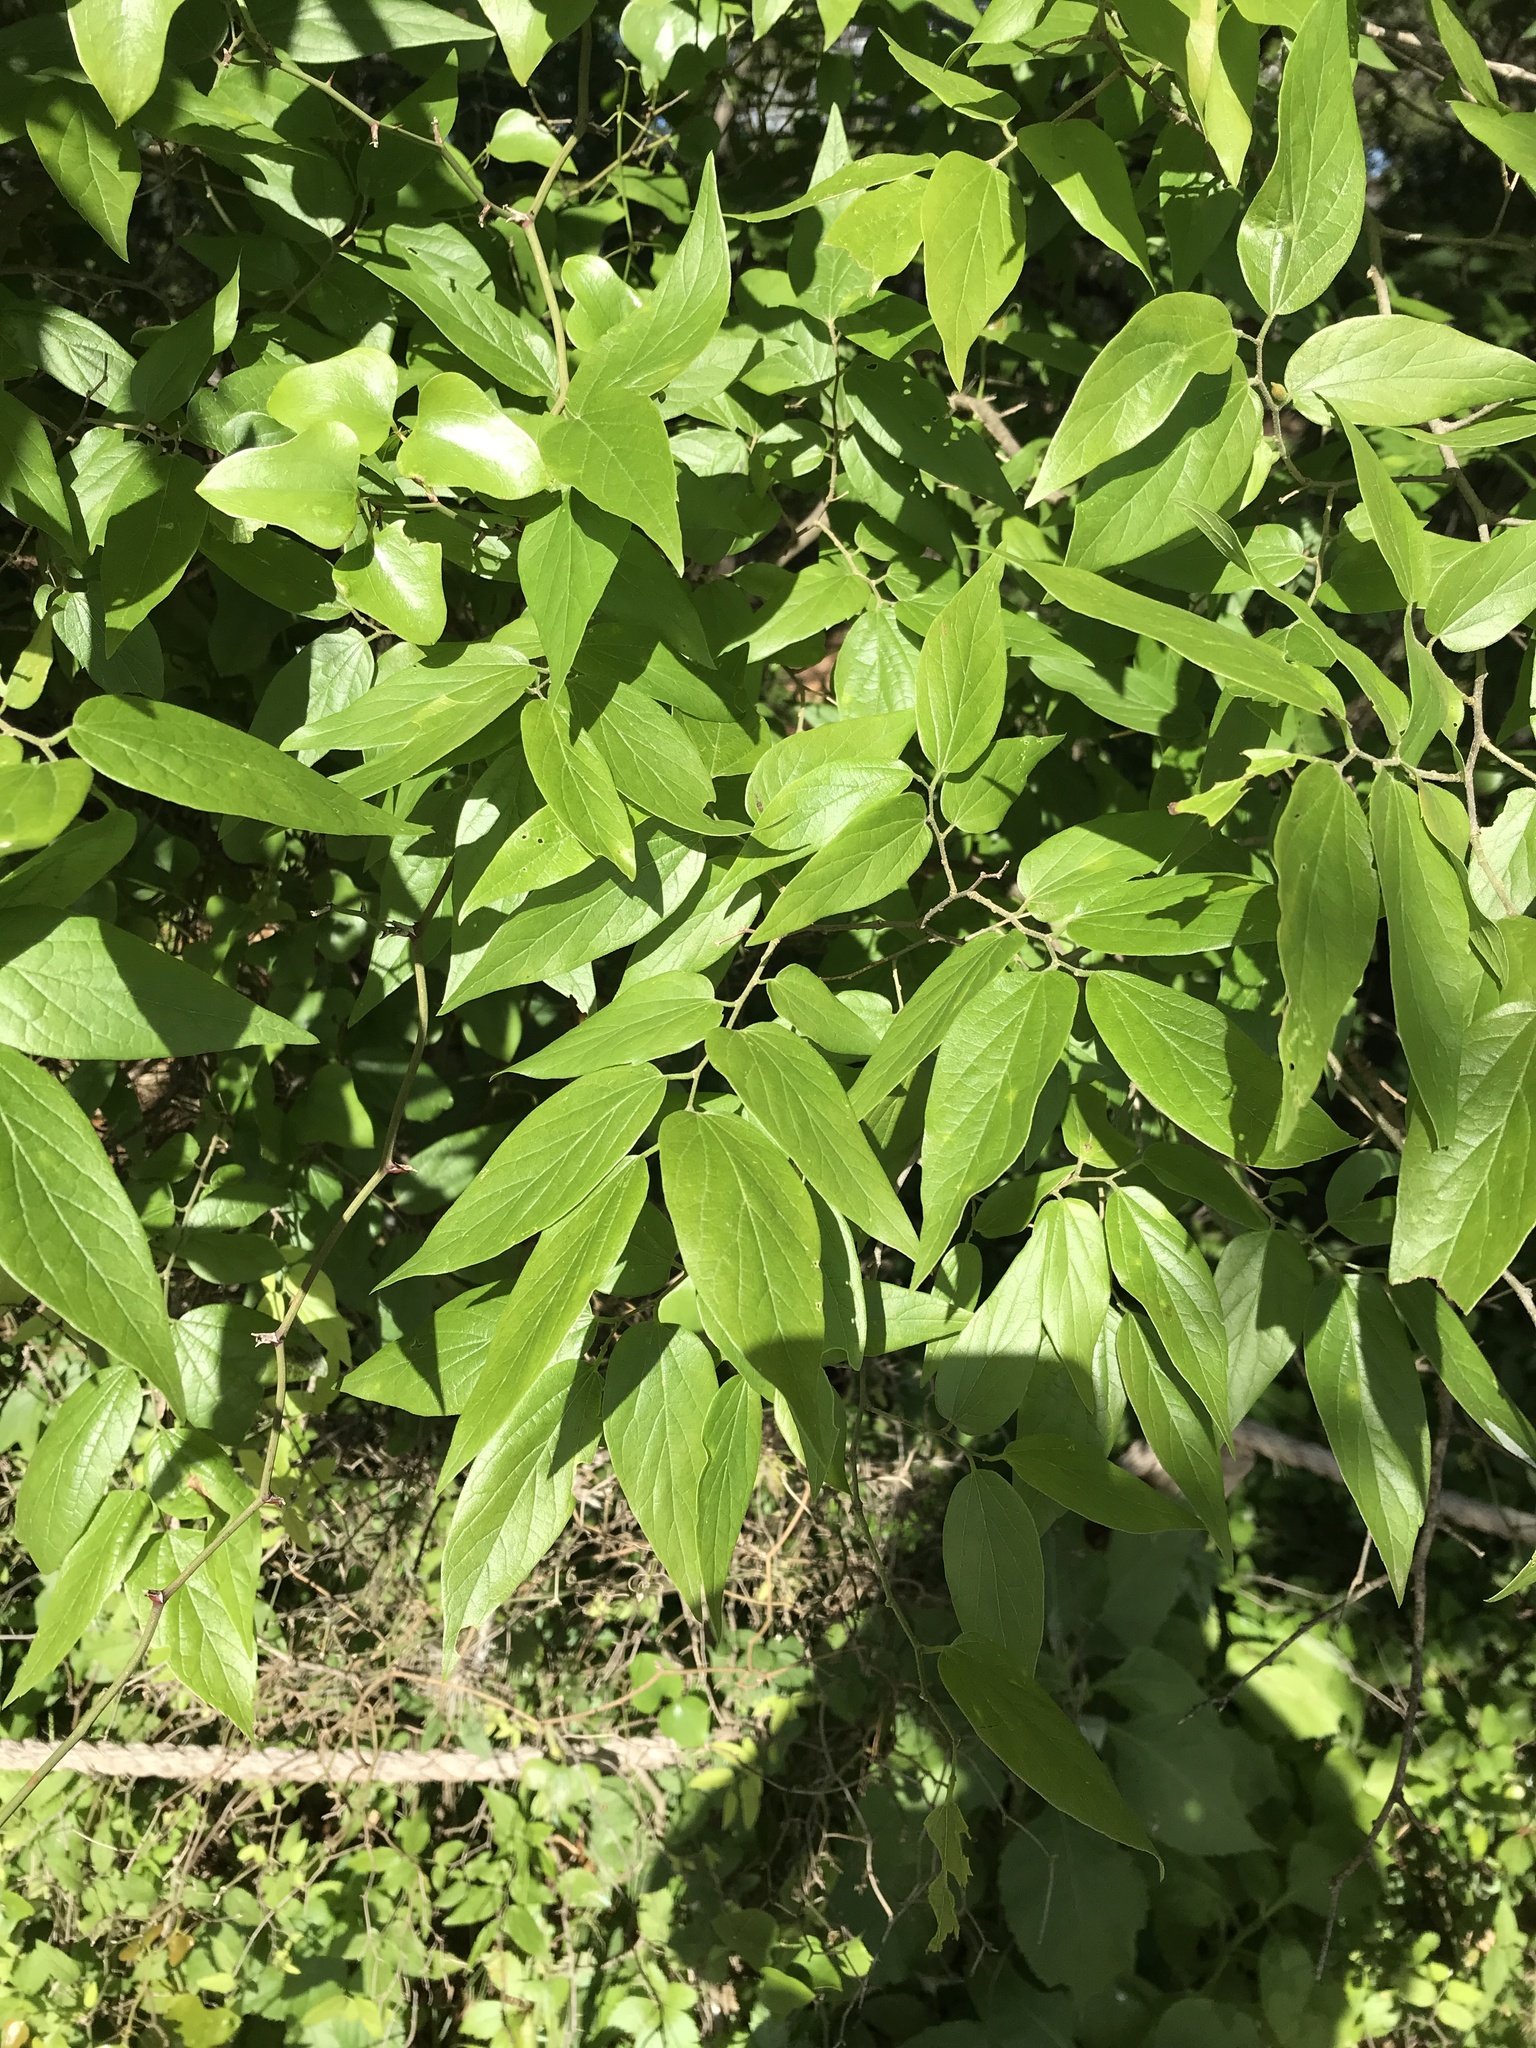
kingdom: Plantae
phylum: Tracheophyta
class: Magnoliopsida
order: Rosales
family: Cannabaceae
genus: Celtis
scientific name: Celtis laevigata
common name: Sugarberry
